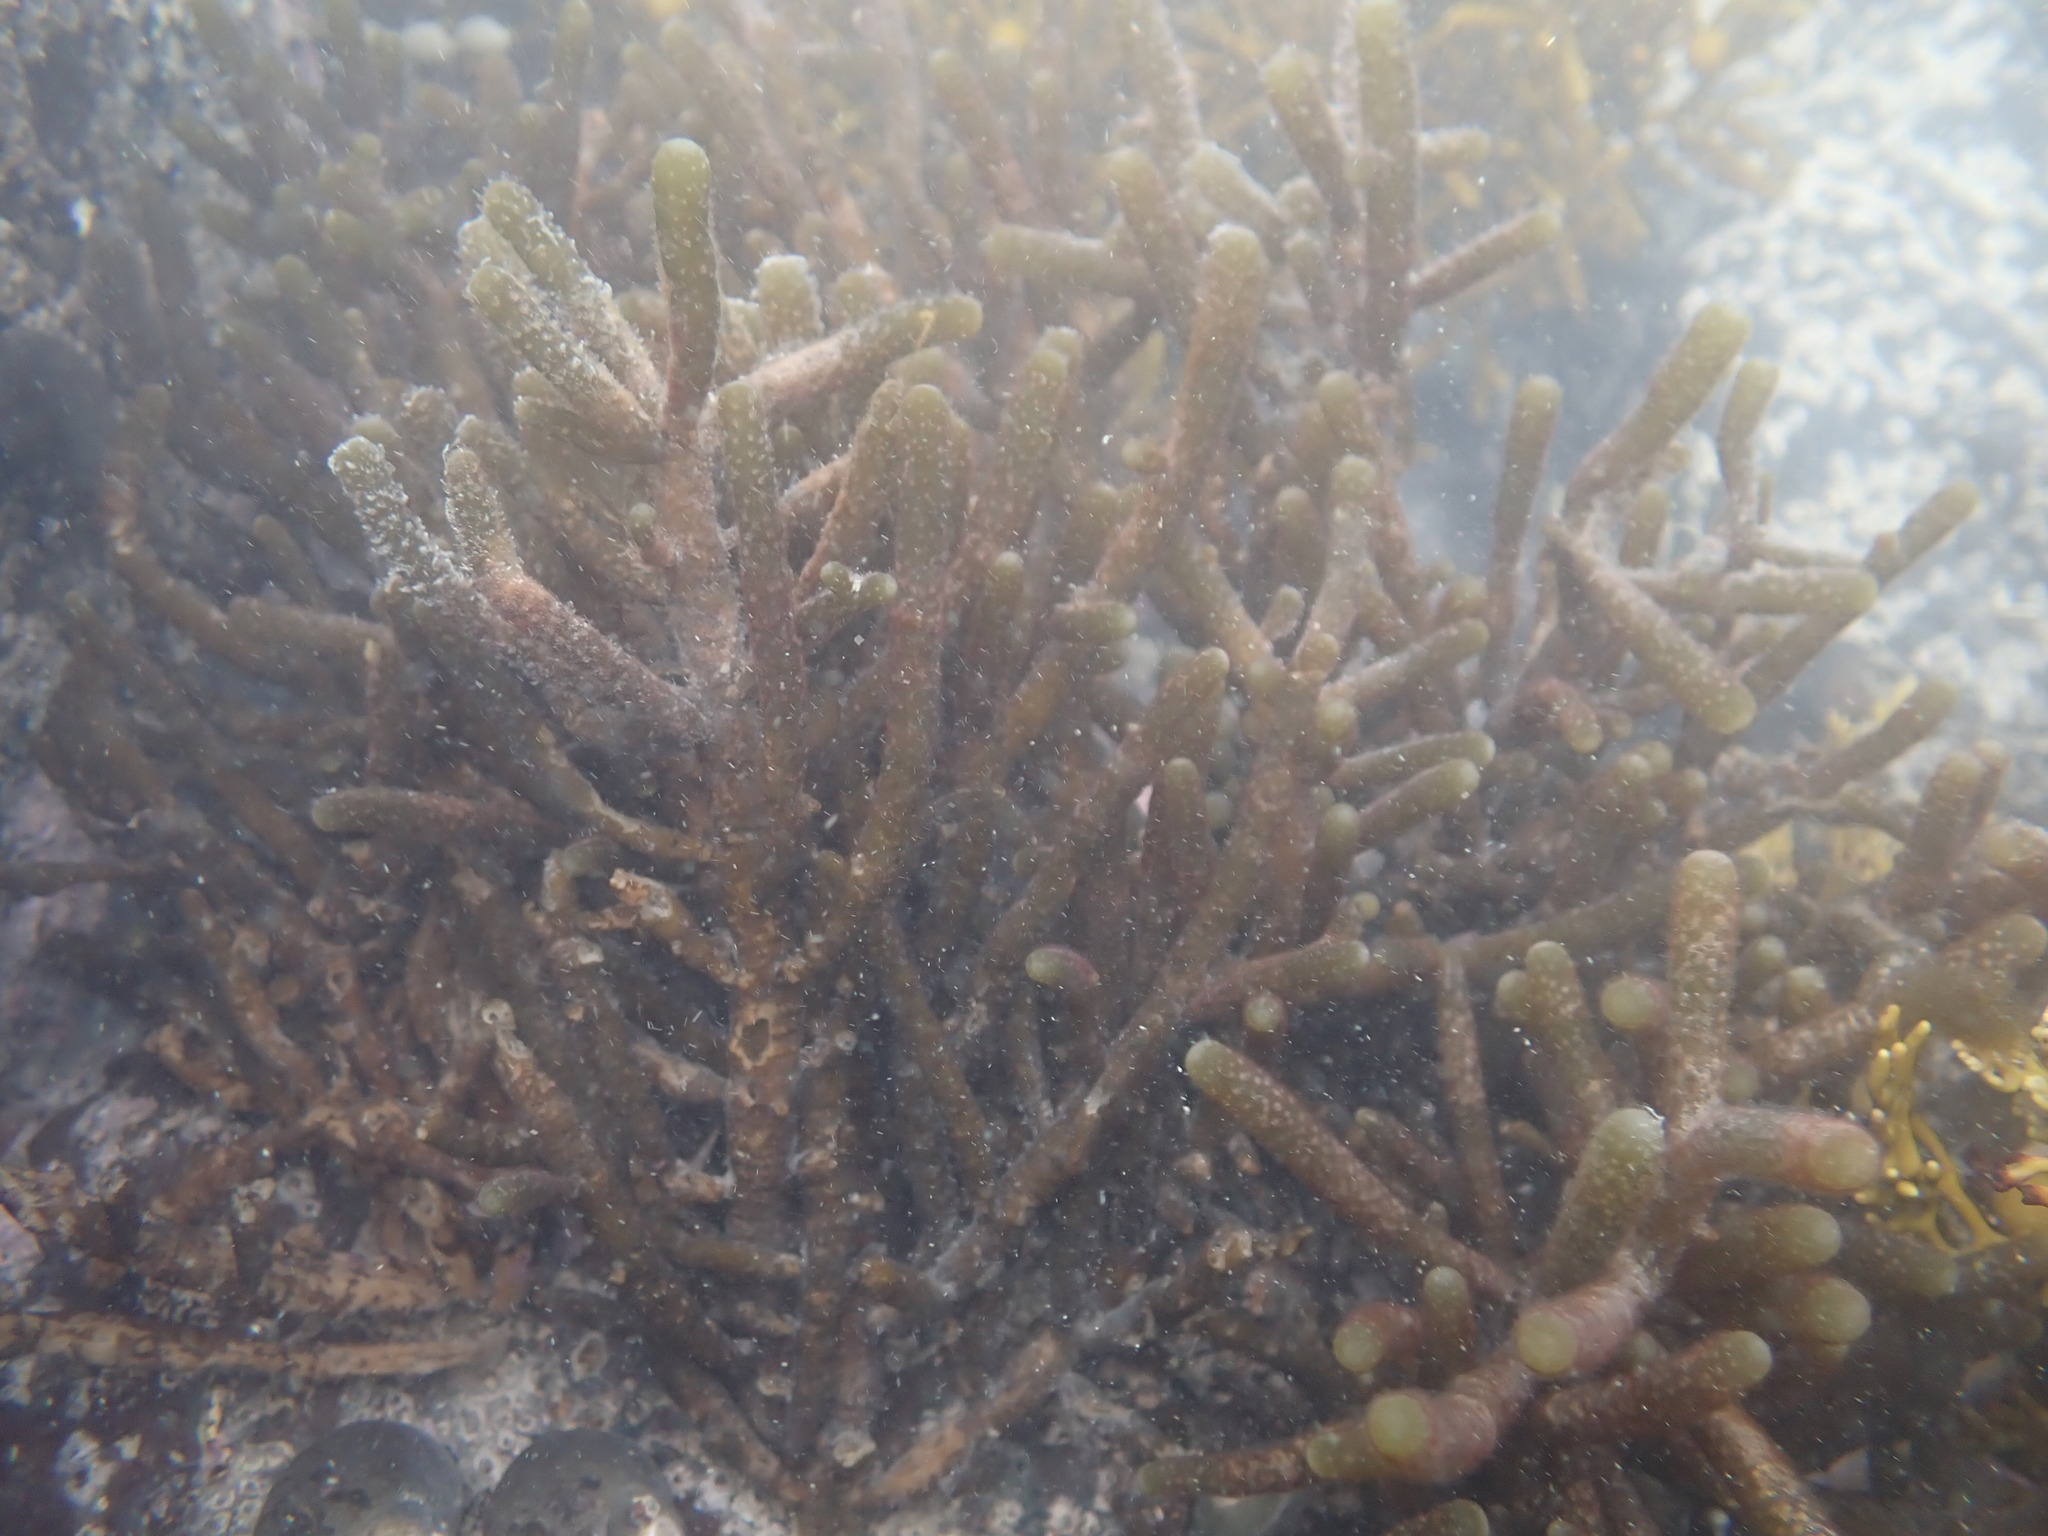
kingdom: Chromista
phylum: Ochrophyta
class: Phaeophyceae
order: Scytothamnales
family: Splachnidiaceae
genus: Splachnidium
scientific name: Splachnidium rugosum
